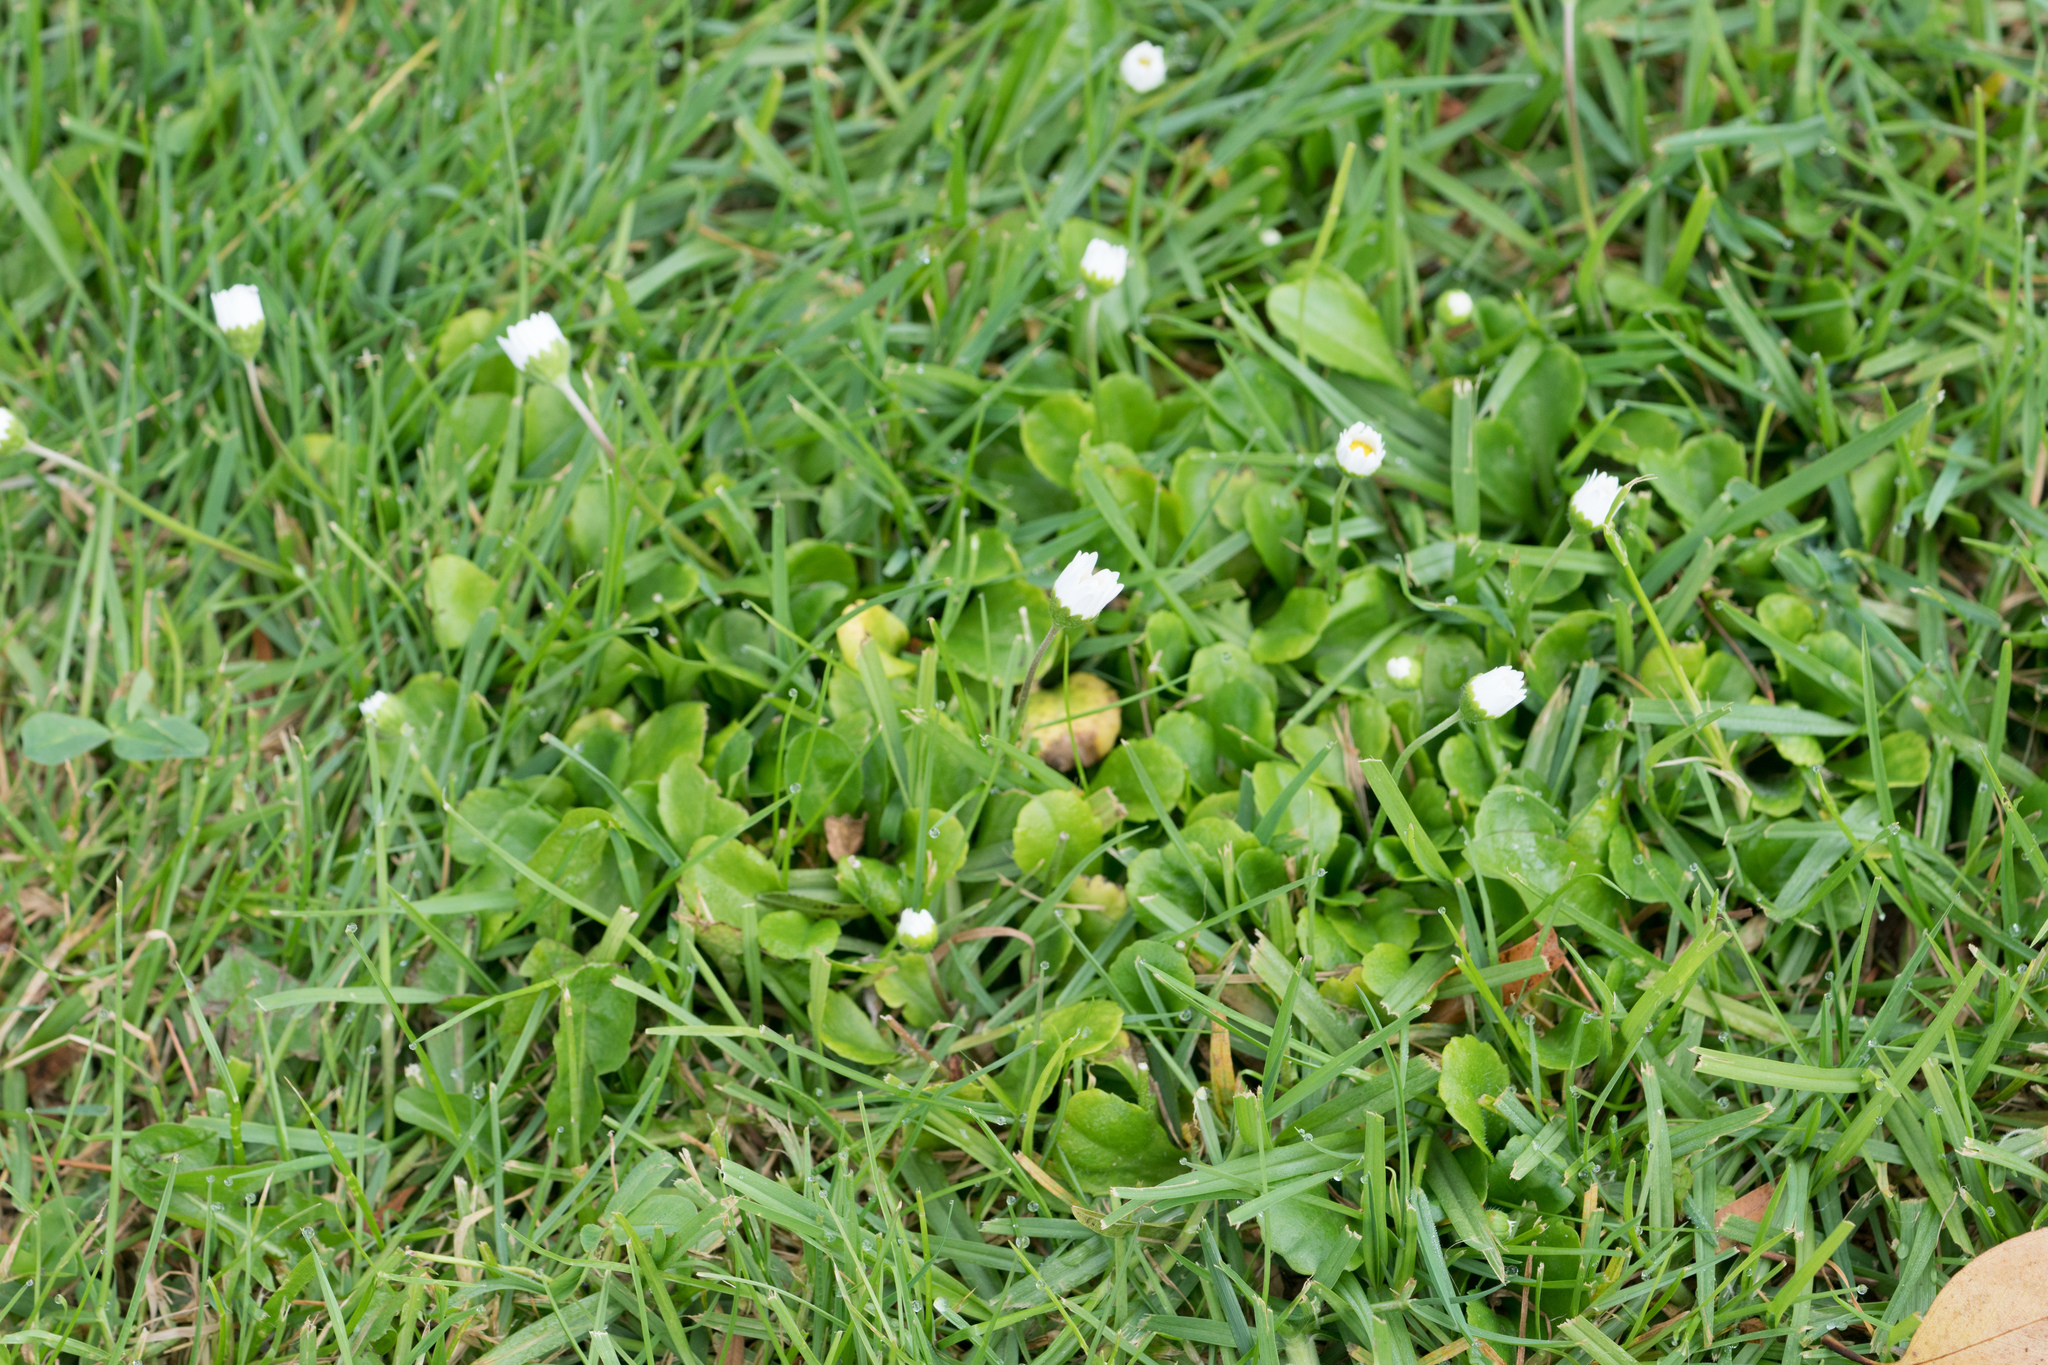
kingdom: Plantae
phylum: Tracheophyta
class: Magnoliopsida
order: Asterales
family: Asteraceae
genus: Bellis
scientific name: Bellis perennis
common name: Lawndaisy
